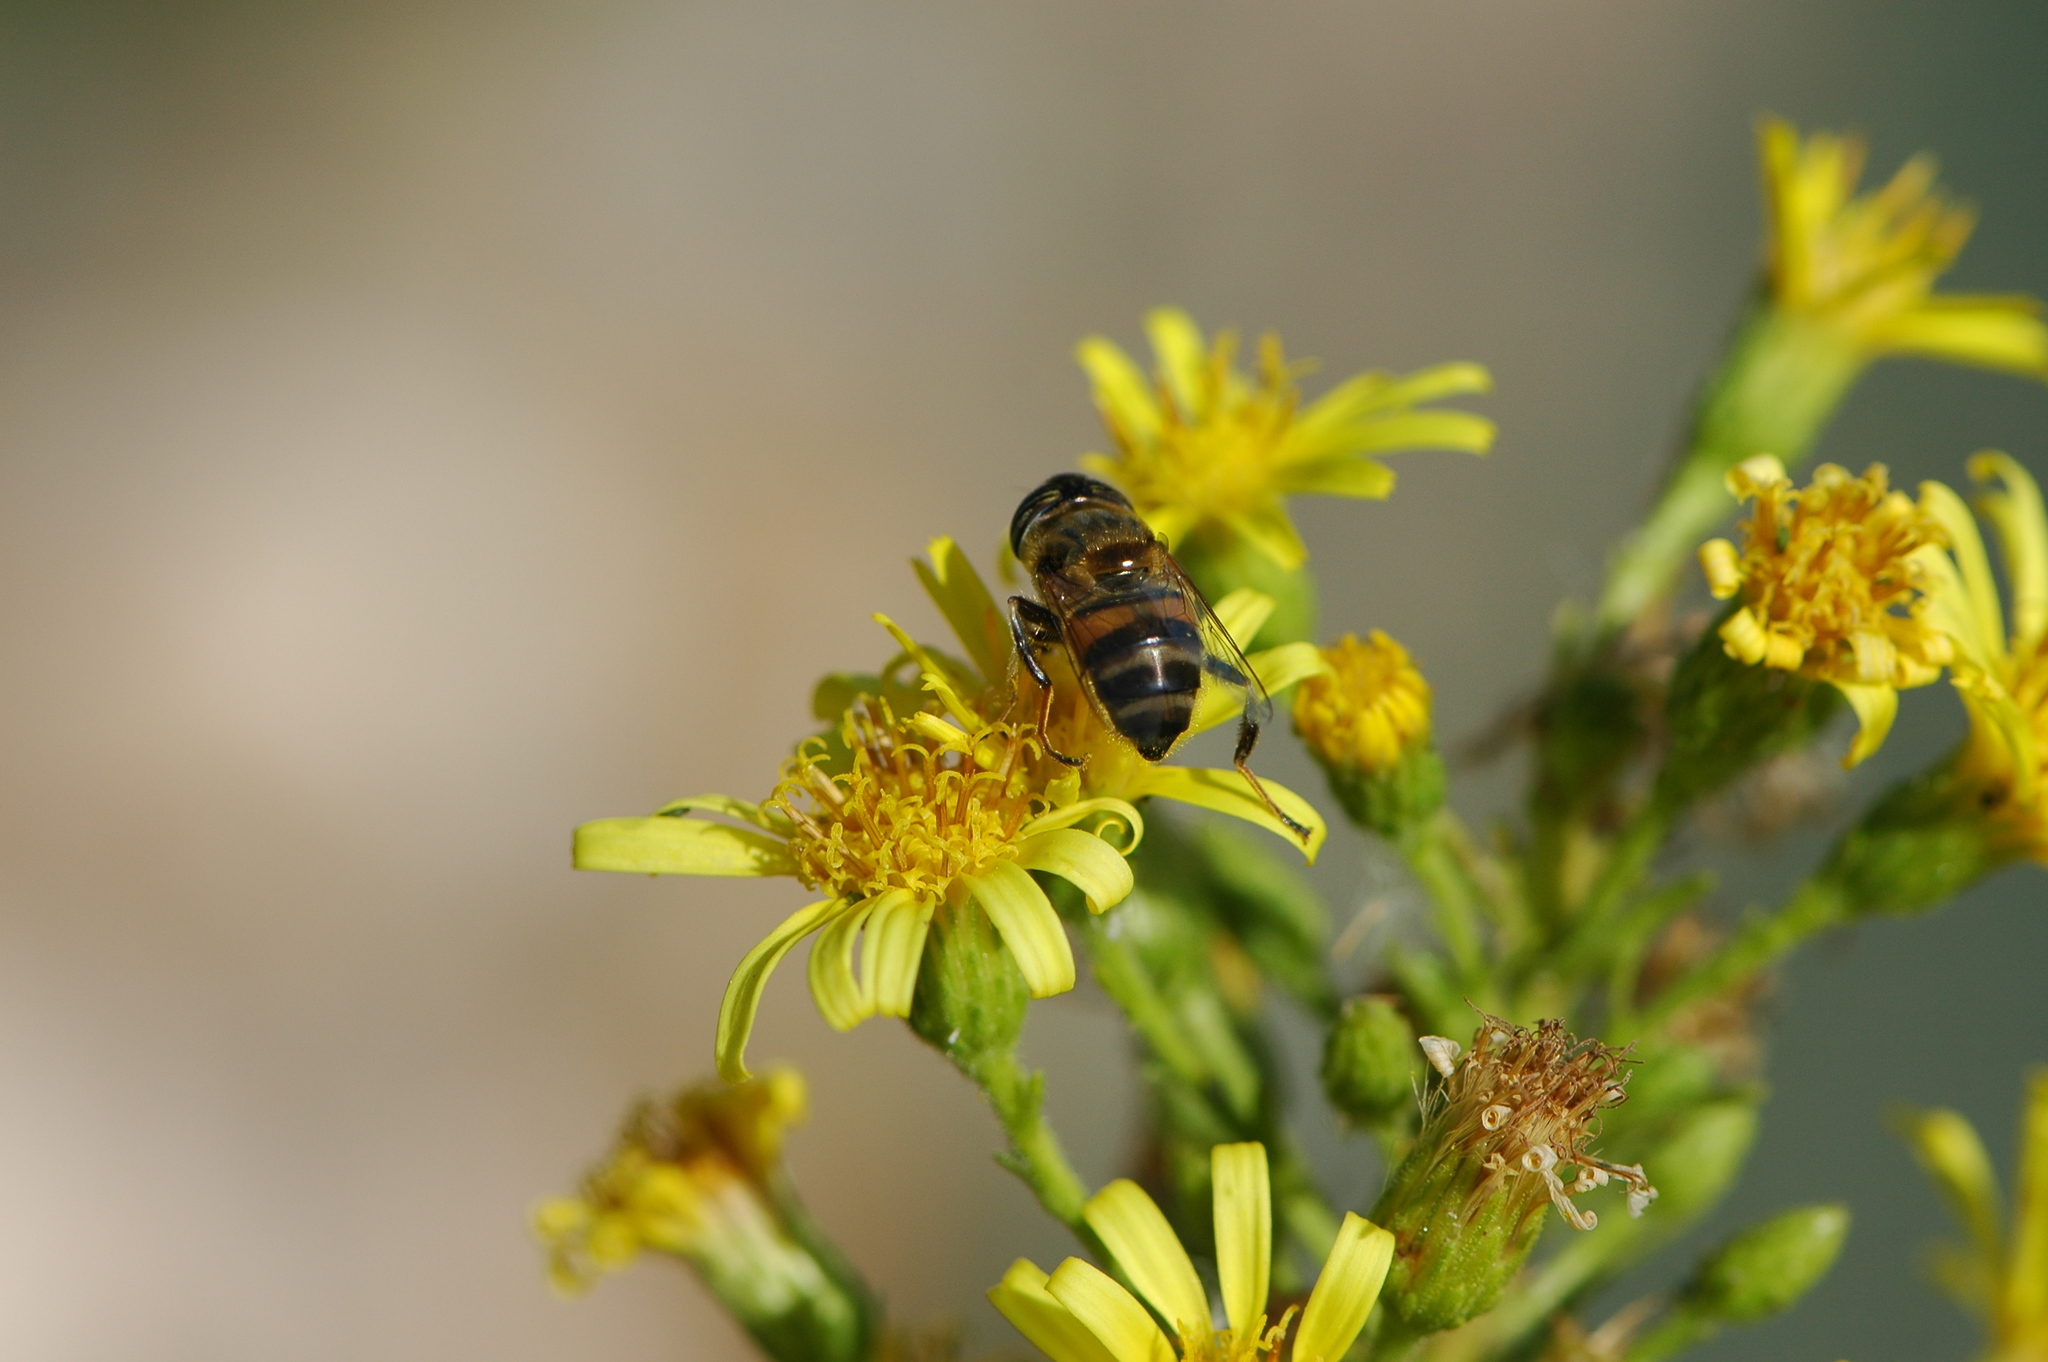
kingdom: Animalia
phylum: Arthropoda
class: Insecta
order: Diptera
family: Syrphidae
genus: Eristalinus
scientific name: Eristalinus taeniops
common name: Syrphid fly
